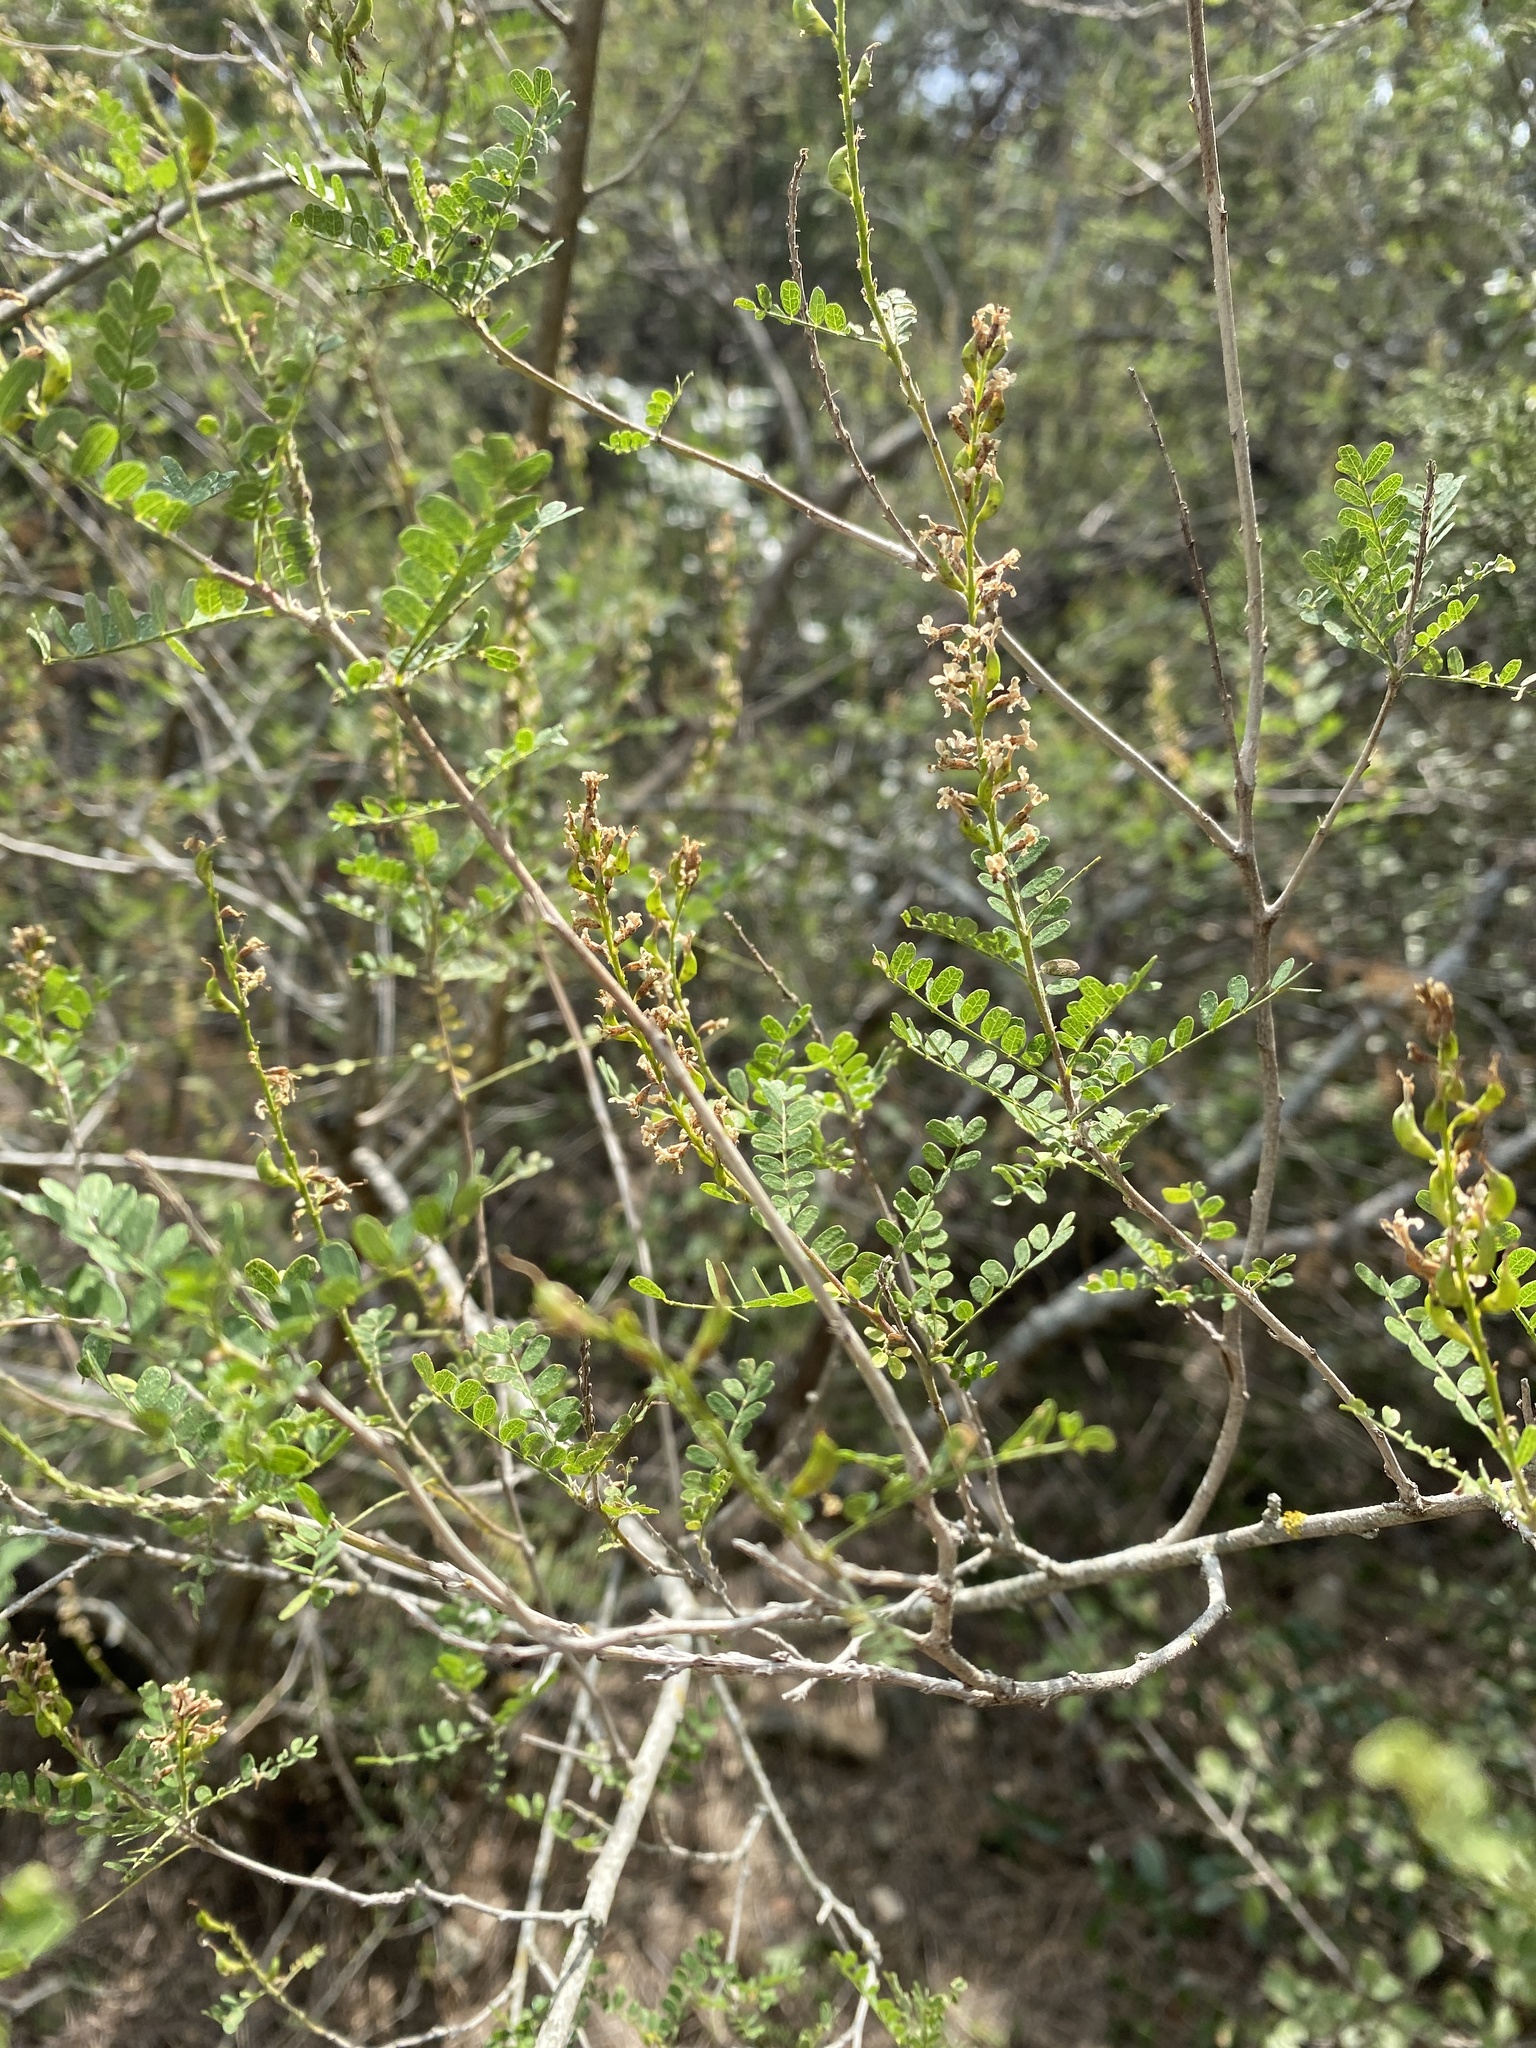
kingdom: Plantae
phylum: Tracheophyta
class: Magnoliopsida
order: Fabales
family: Fabaceae
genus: Eysenhardtia
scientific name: Eysenhardtia texana
